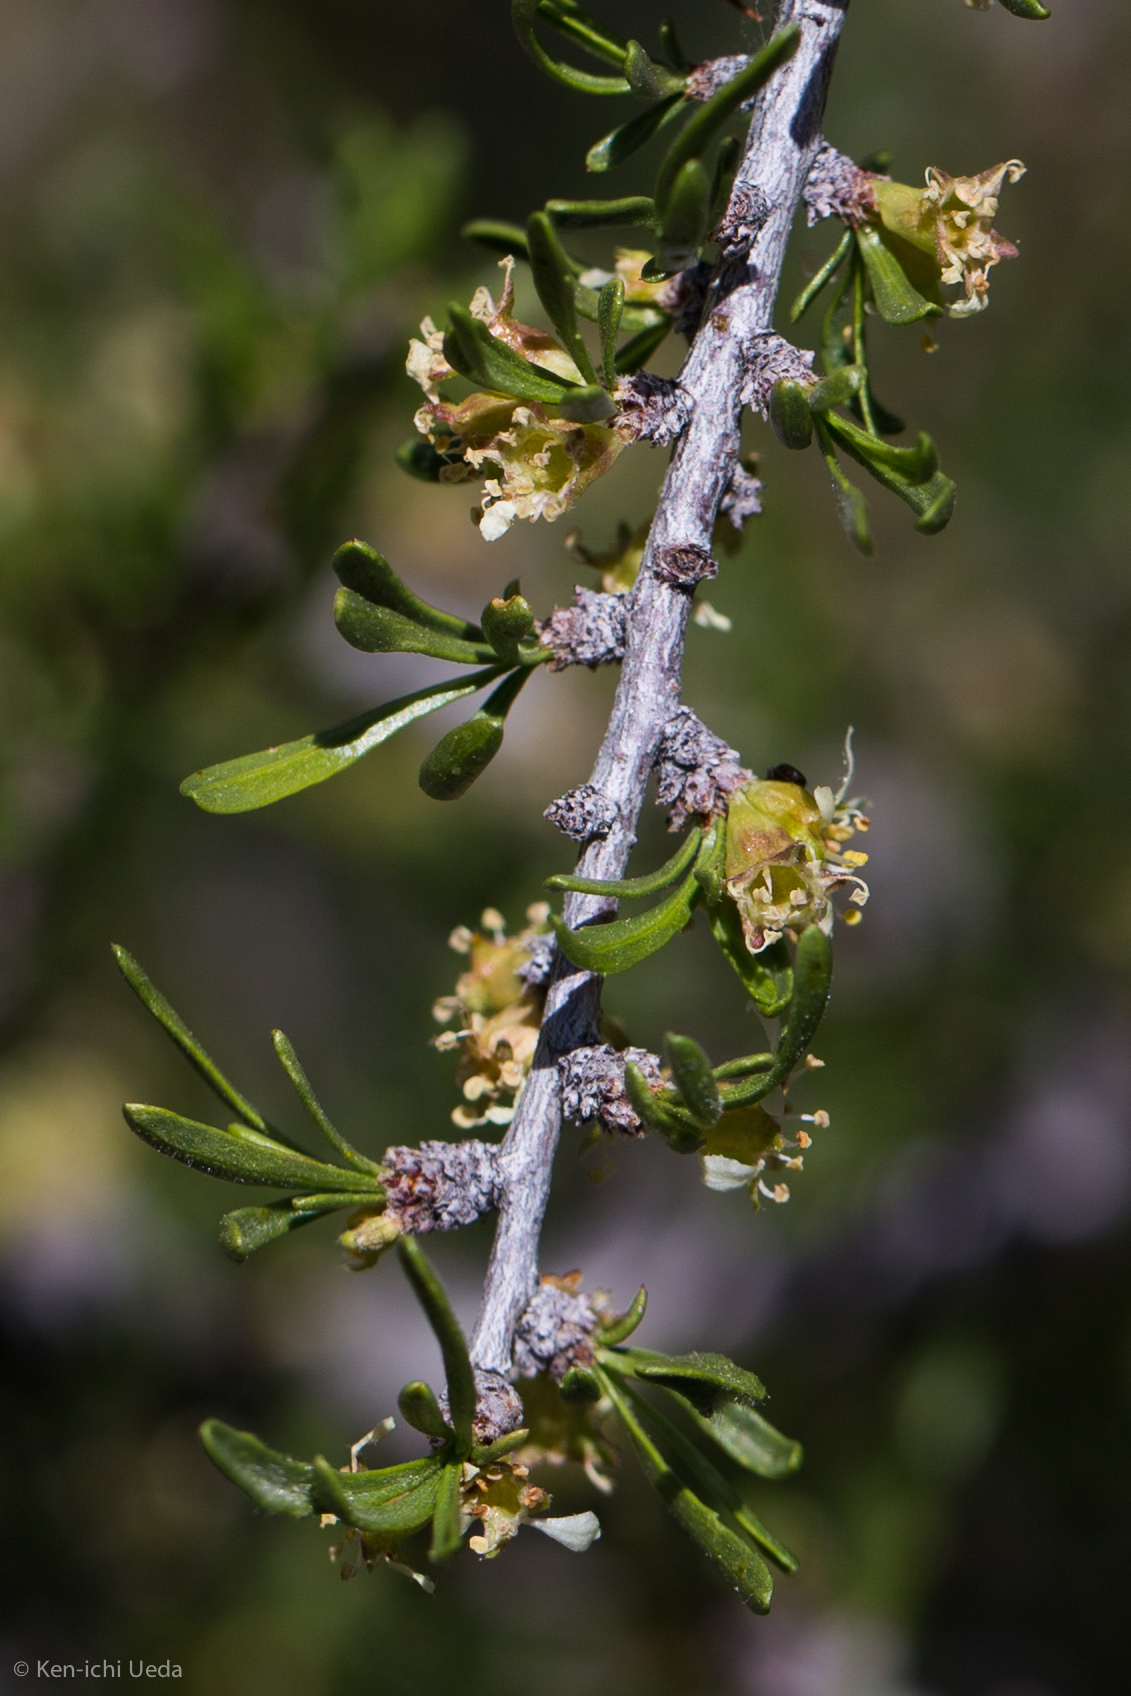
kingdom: Plantae
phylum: Tracheophyta
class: Magnoliopsida
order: Rosales
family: Rosaceae
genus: Prunus
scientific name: Prunus fasciculata
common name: Desert almond
